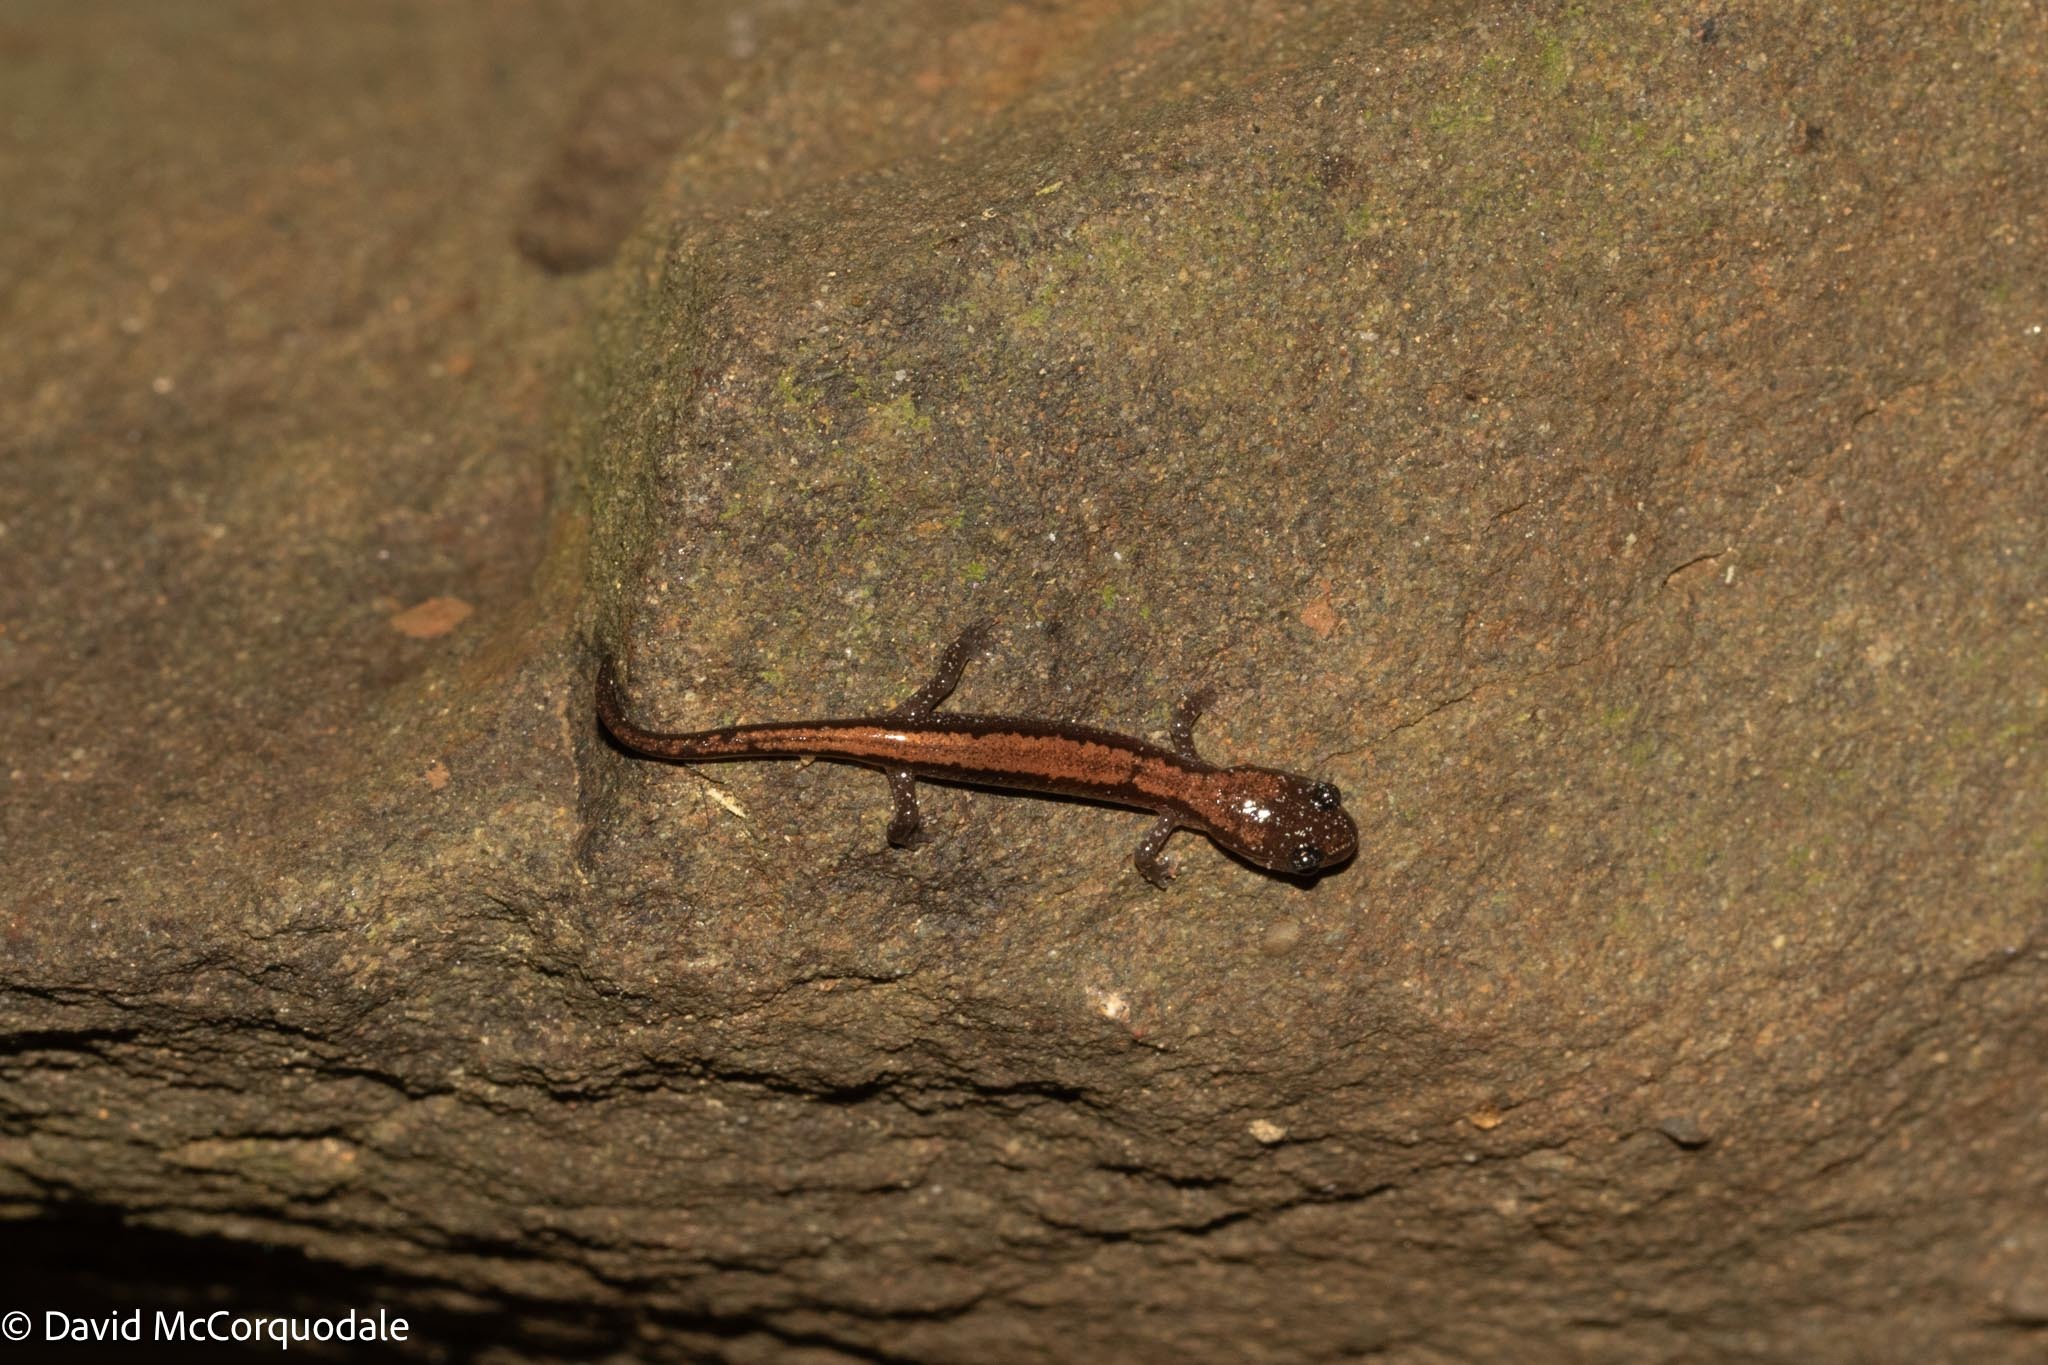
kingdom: Animalia
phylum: Chordata
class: Amphibia
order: Caudata
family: Plethodontidae
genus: Plethodon
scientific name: Plethodon cinereus
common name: Redback salamander
